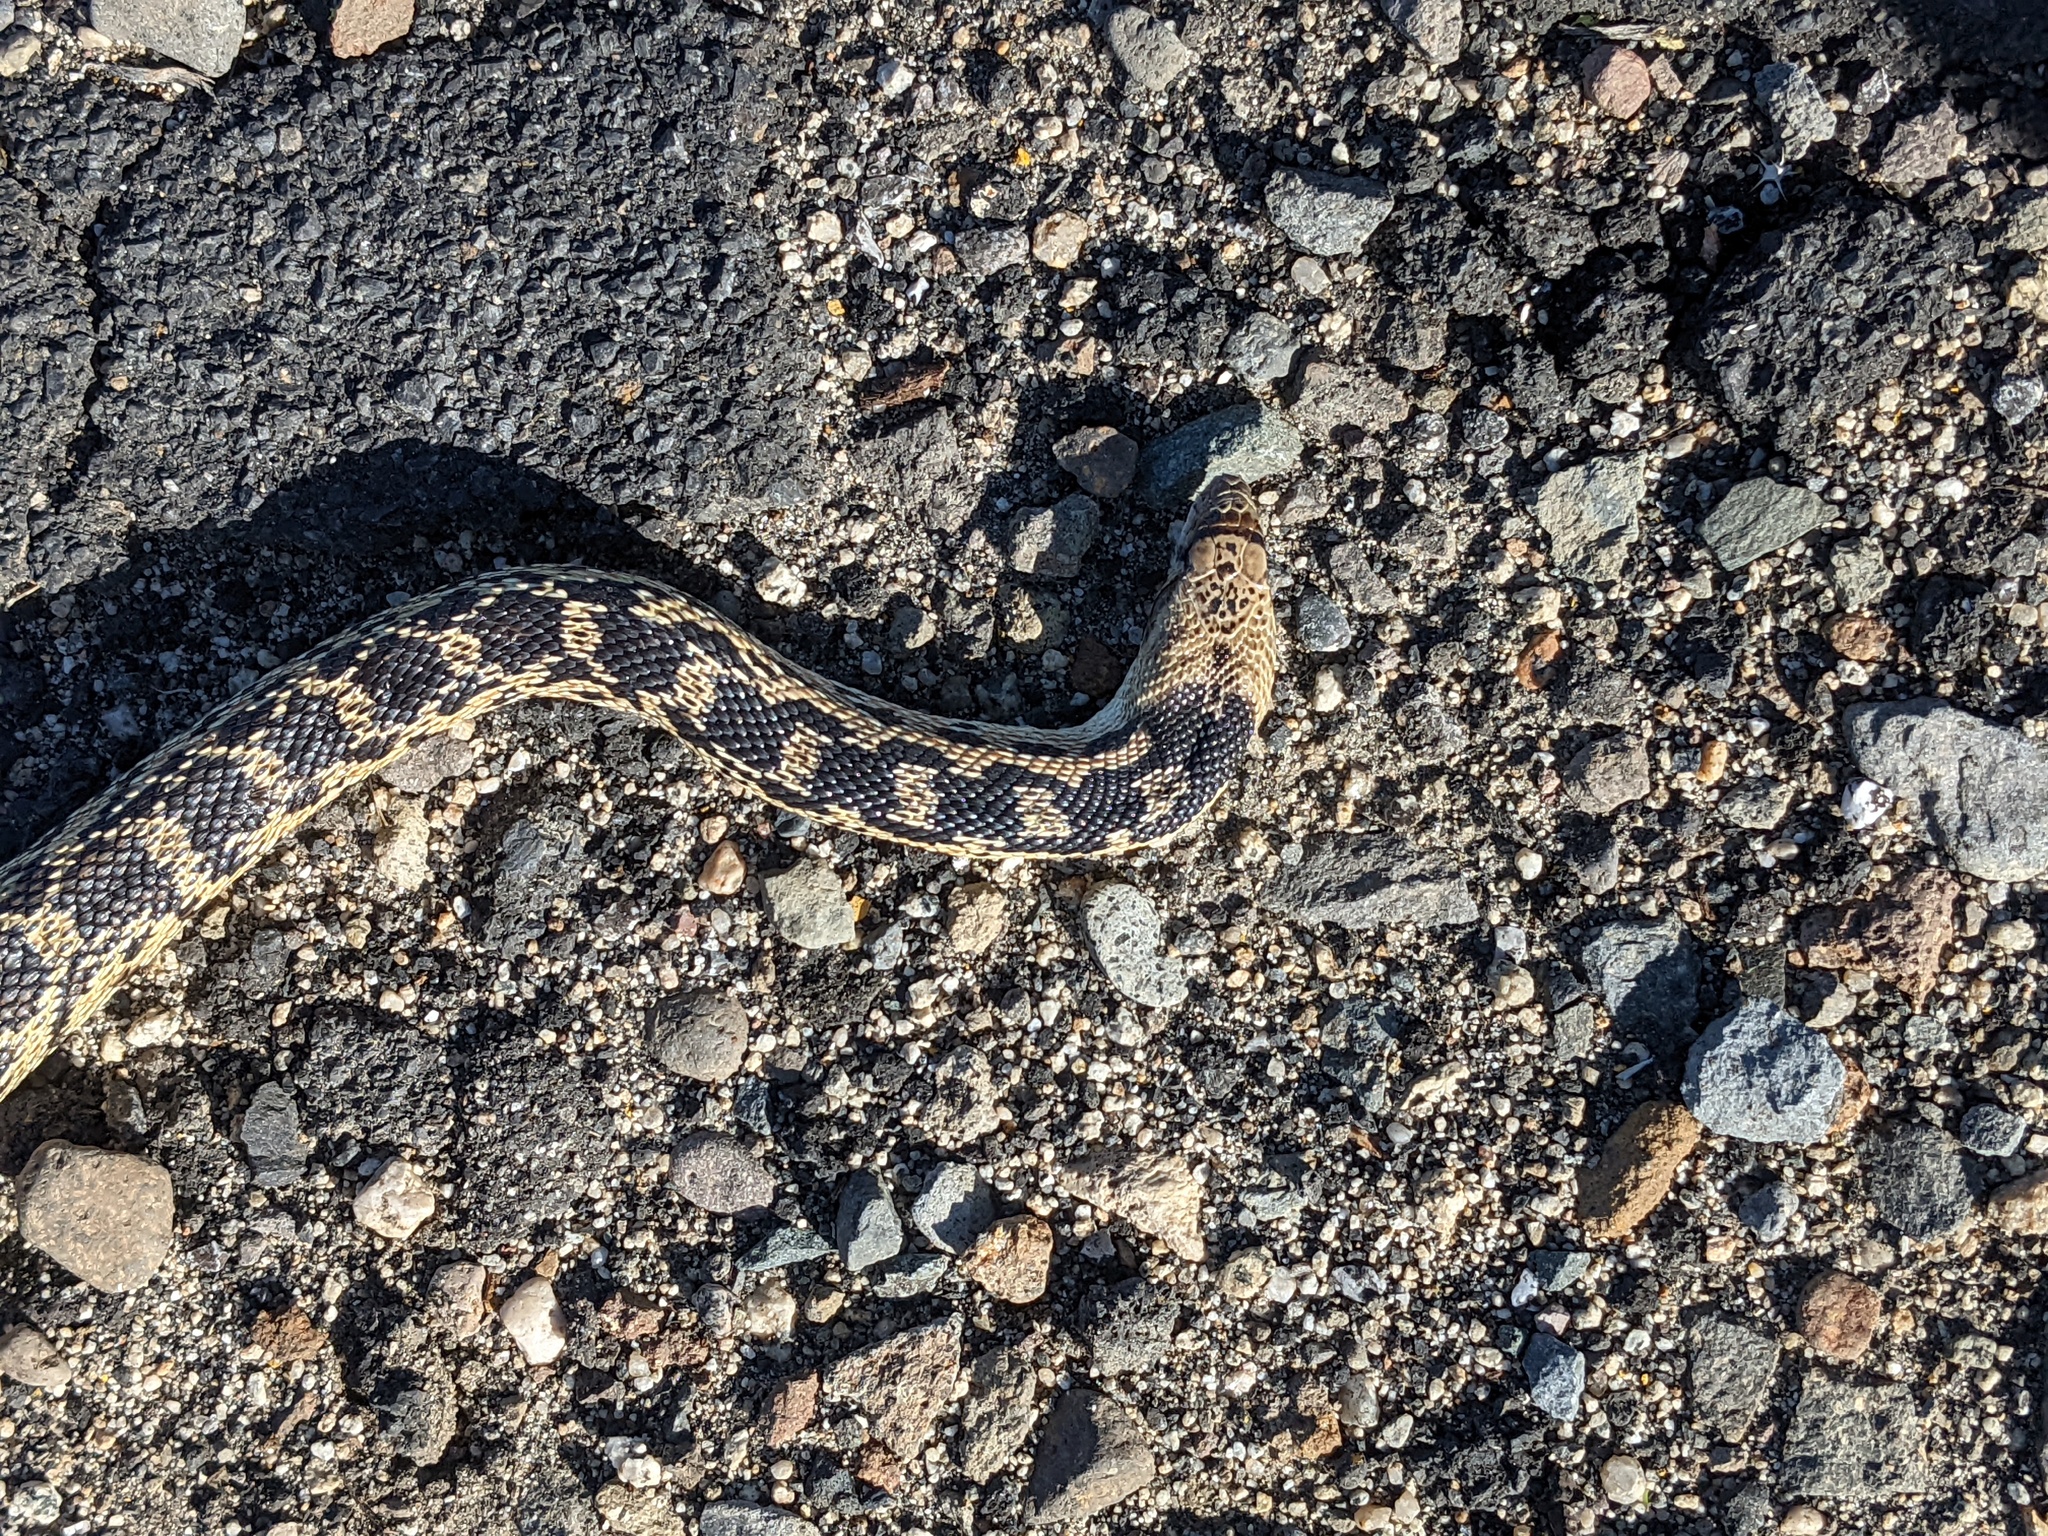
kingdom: Animalia
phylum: Chordata
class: Squamata
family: Colubridae
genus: Pituophis
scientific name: Pituophis catenifer
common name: Gopher snake
